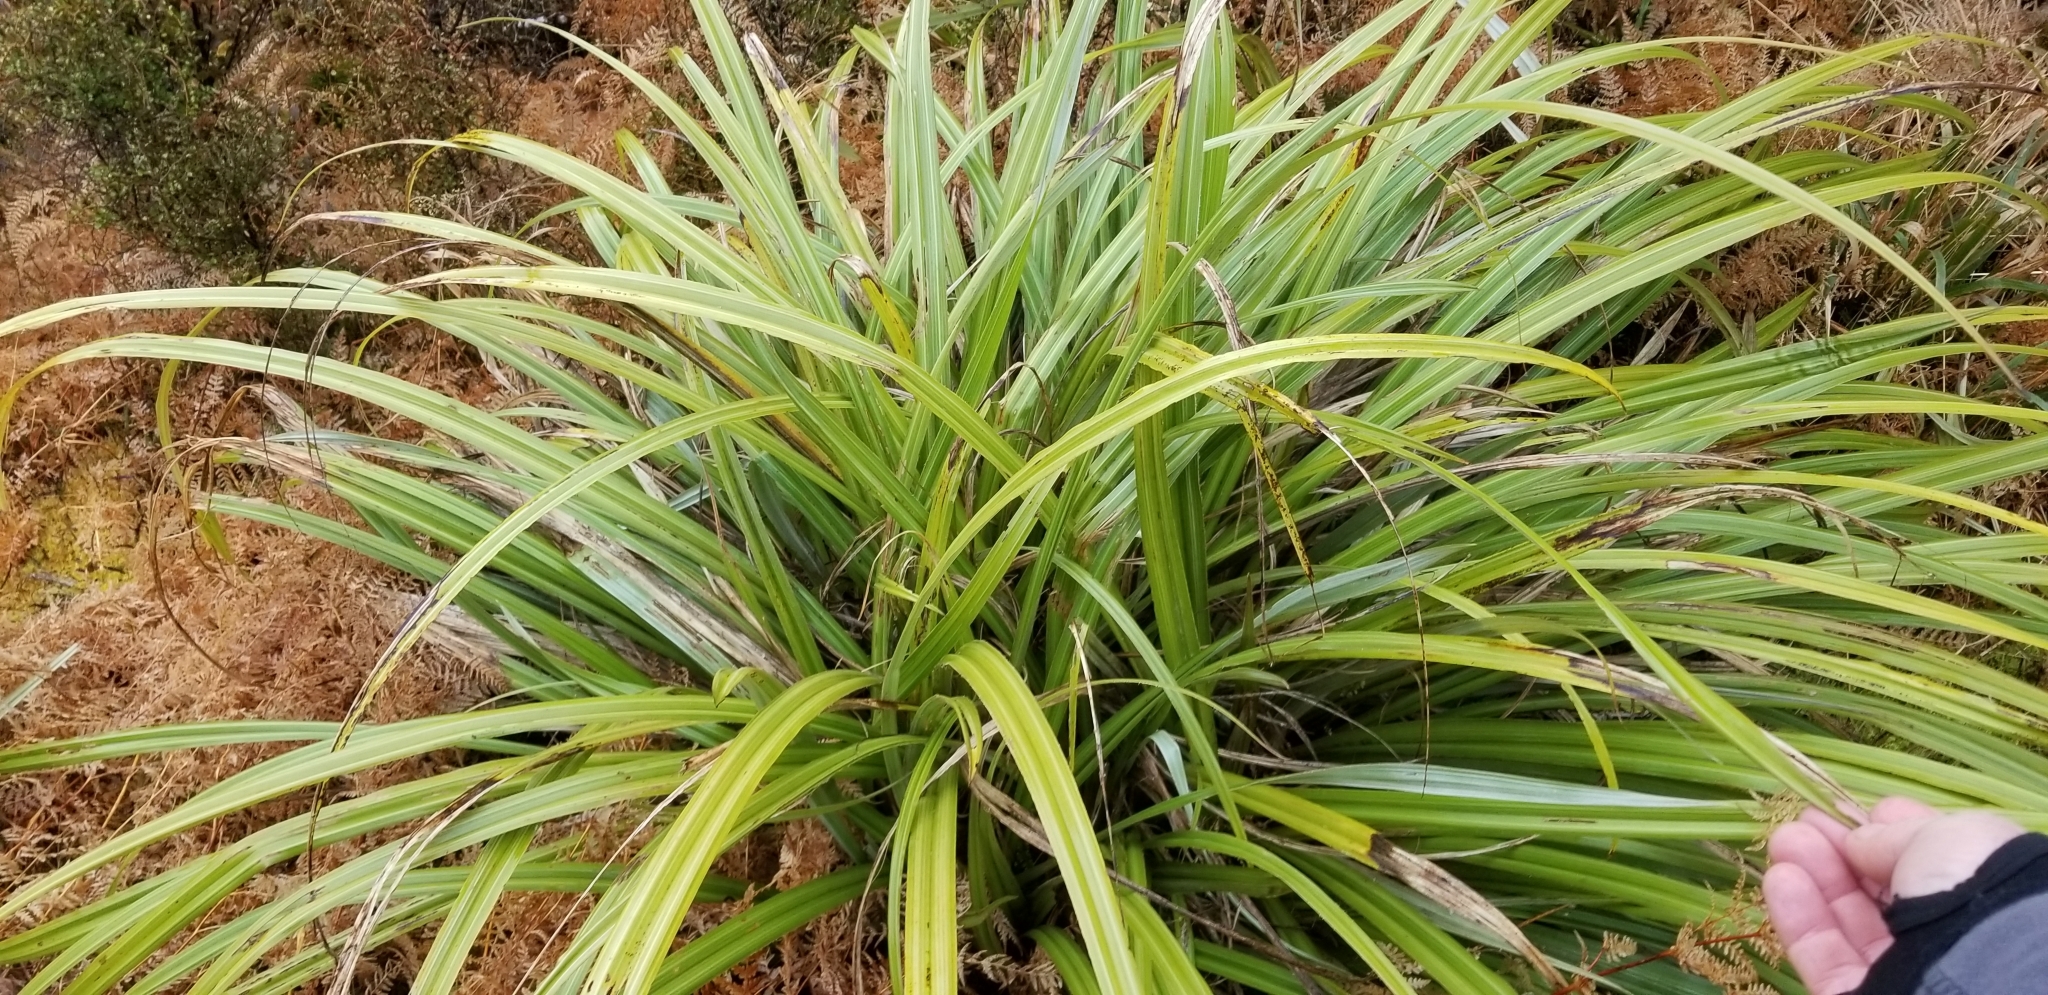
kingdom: Plantae
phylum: Tracheophyta
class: Liliopsida
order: Asparagales
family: Asteliaceae
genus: Astelia
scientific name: Astelia fragrans
